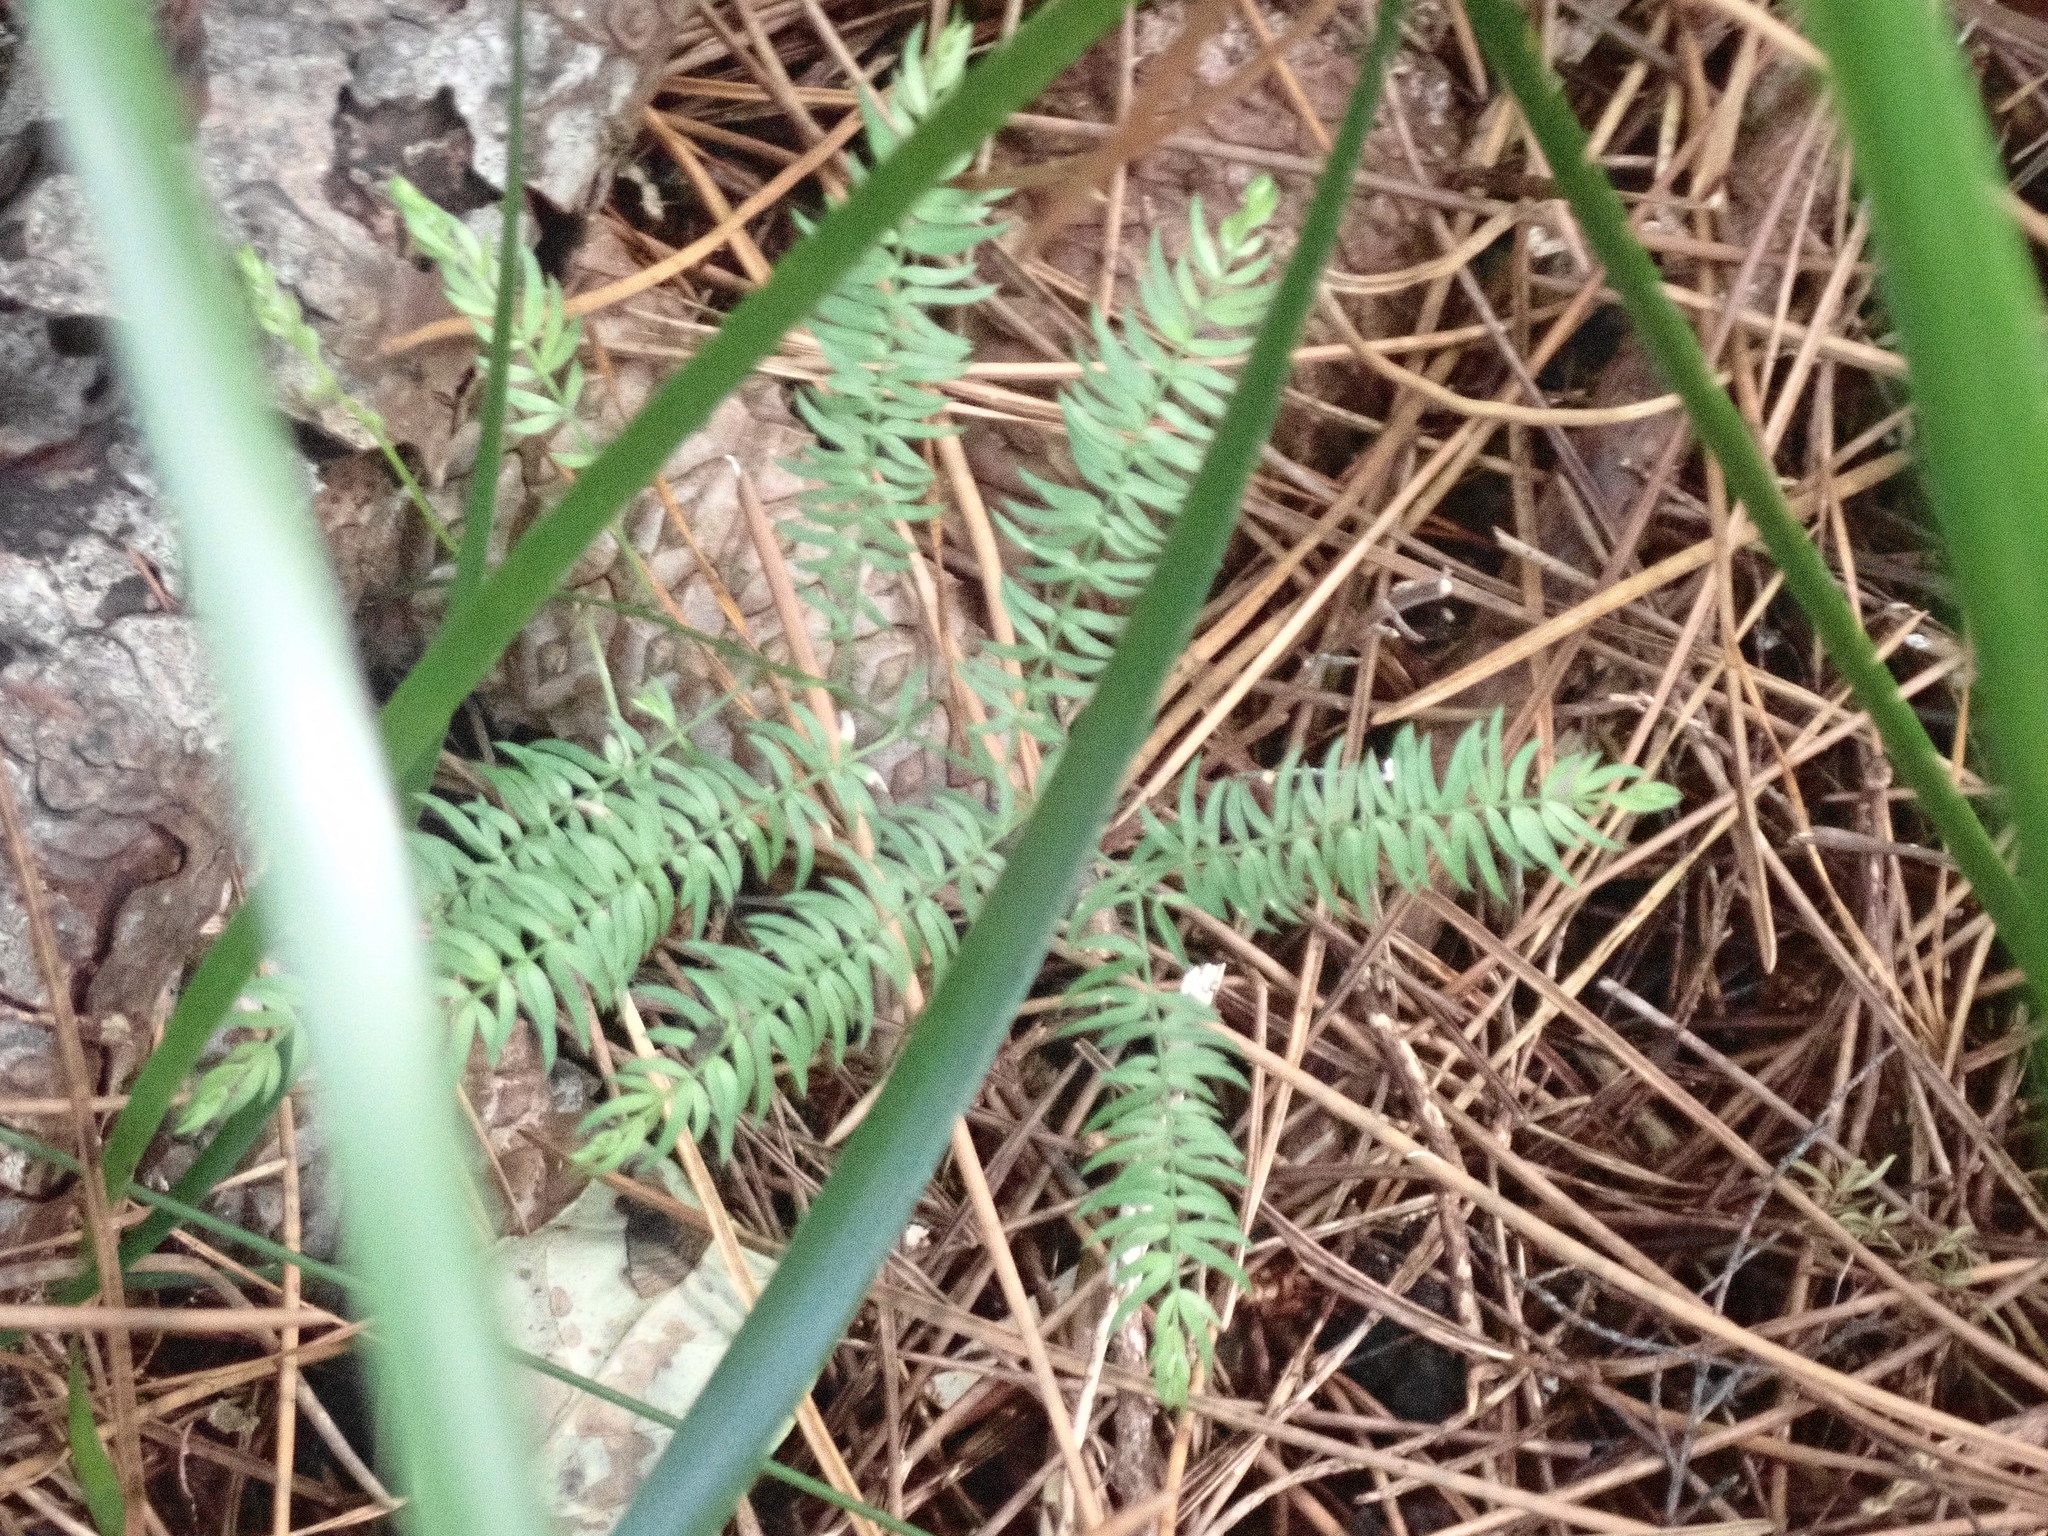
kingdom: Plantae
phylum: Tracheophyta
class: Liliopsida
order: Asparagales
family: Asparagaceae
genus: Asparagus
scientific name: Asparagus scandens
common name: Asparagus-fern
